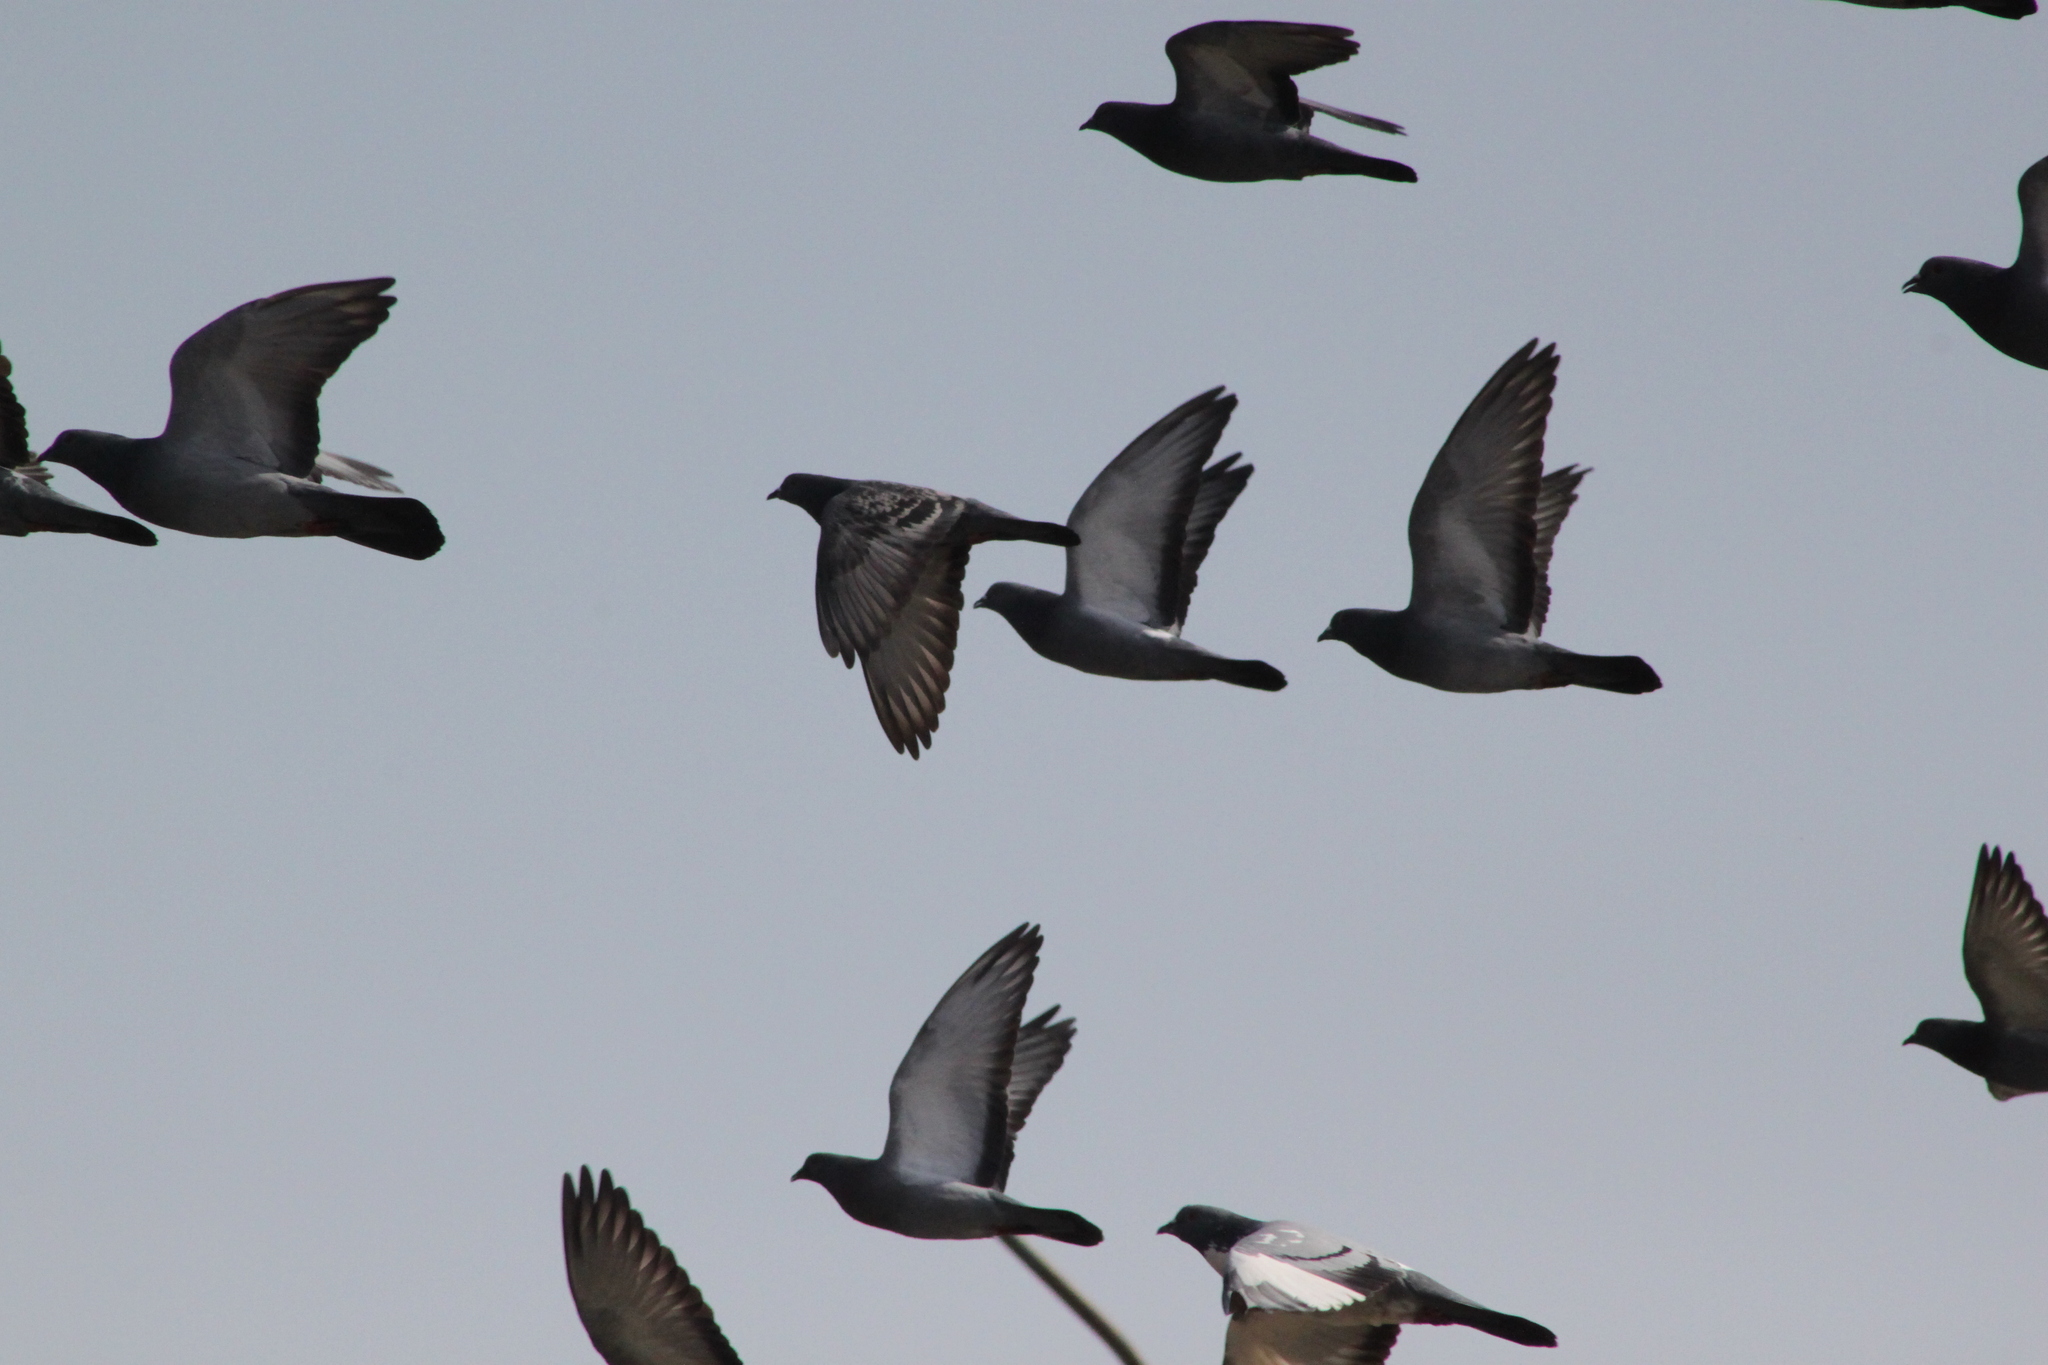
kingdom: Animalia
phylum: Chordata
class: Aves
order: Columbiformes
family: Columbidae
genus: Columba
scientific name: Columba livia
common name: Rock pigeon
